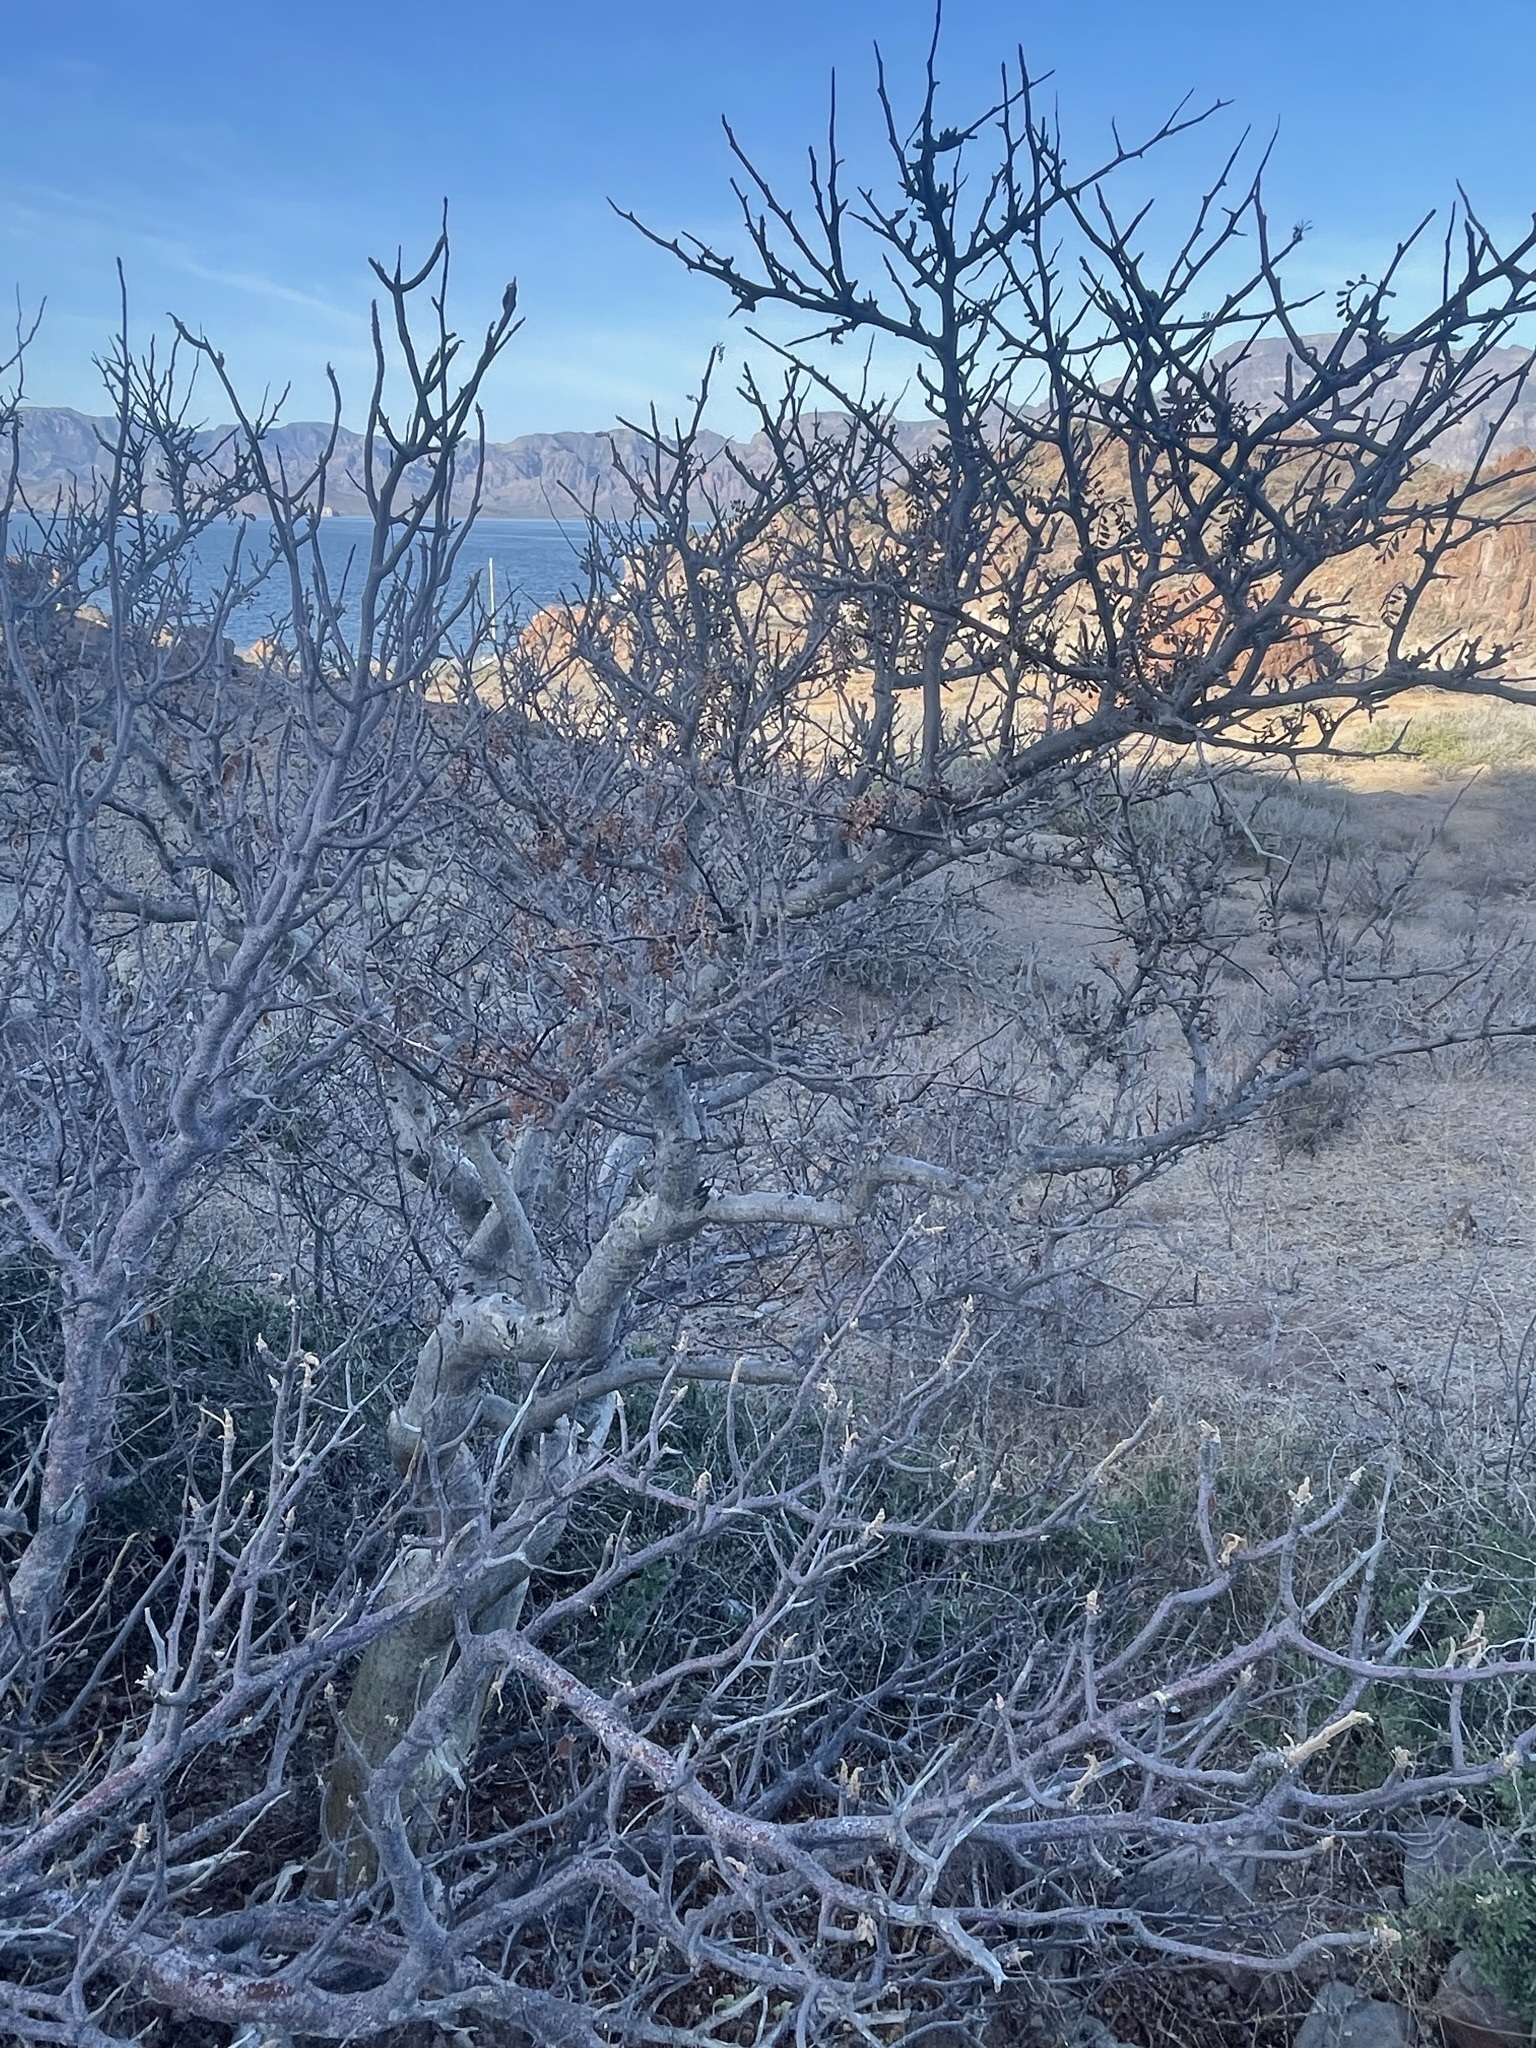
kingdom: Plantae
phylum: Tracheophyta
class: Magnoliopsida
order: Sapindales
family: Burseraceae
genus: Bursera
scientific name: Bursera hindsiana
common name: Red elephant tree
